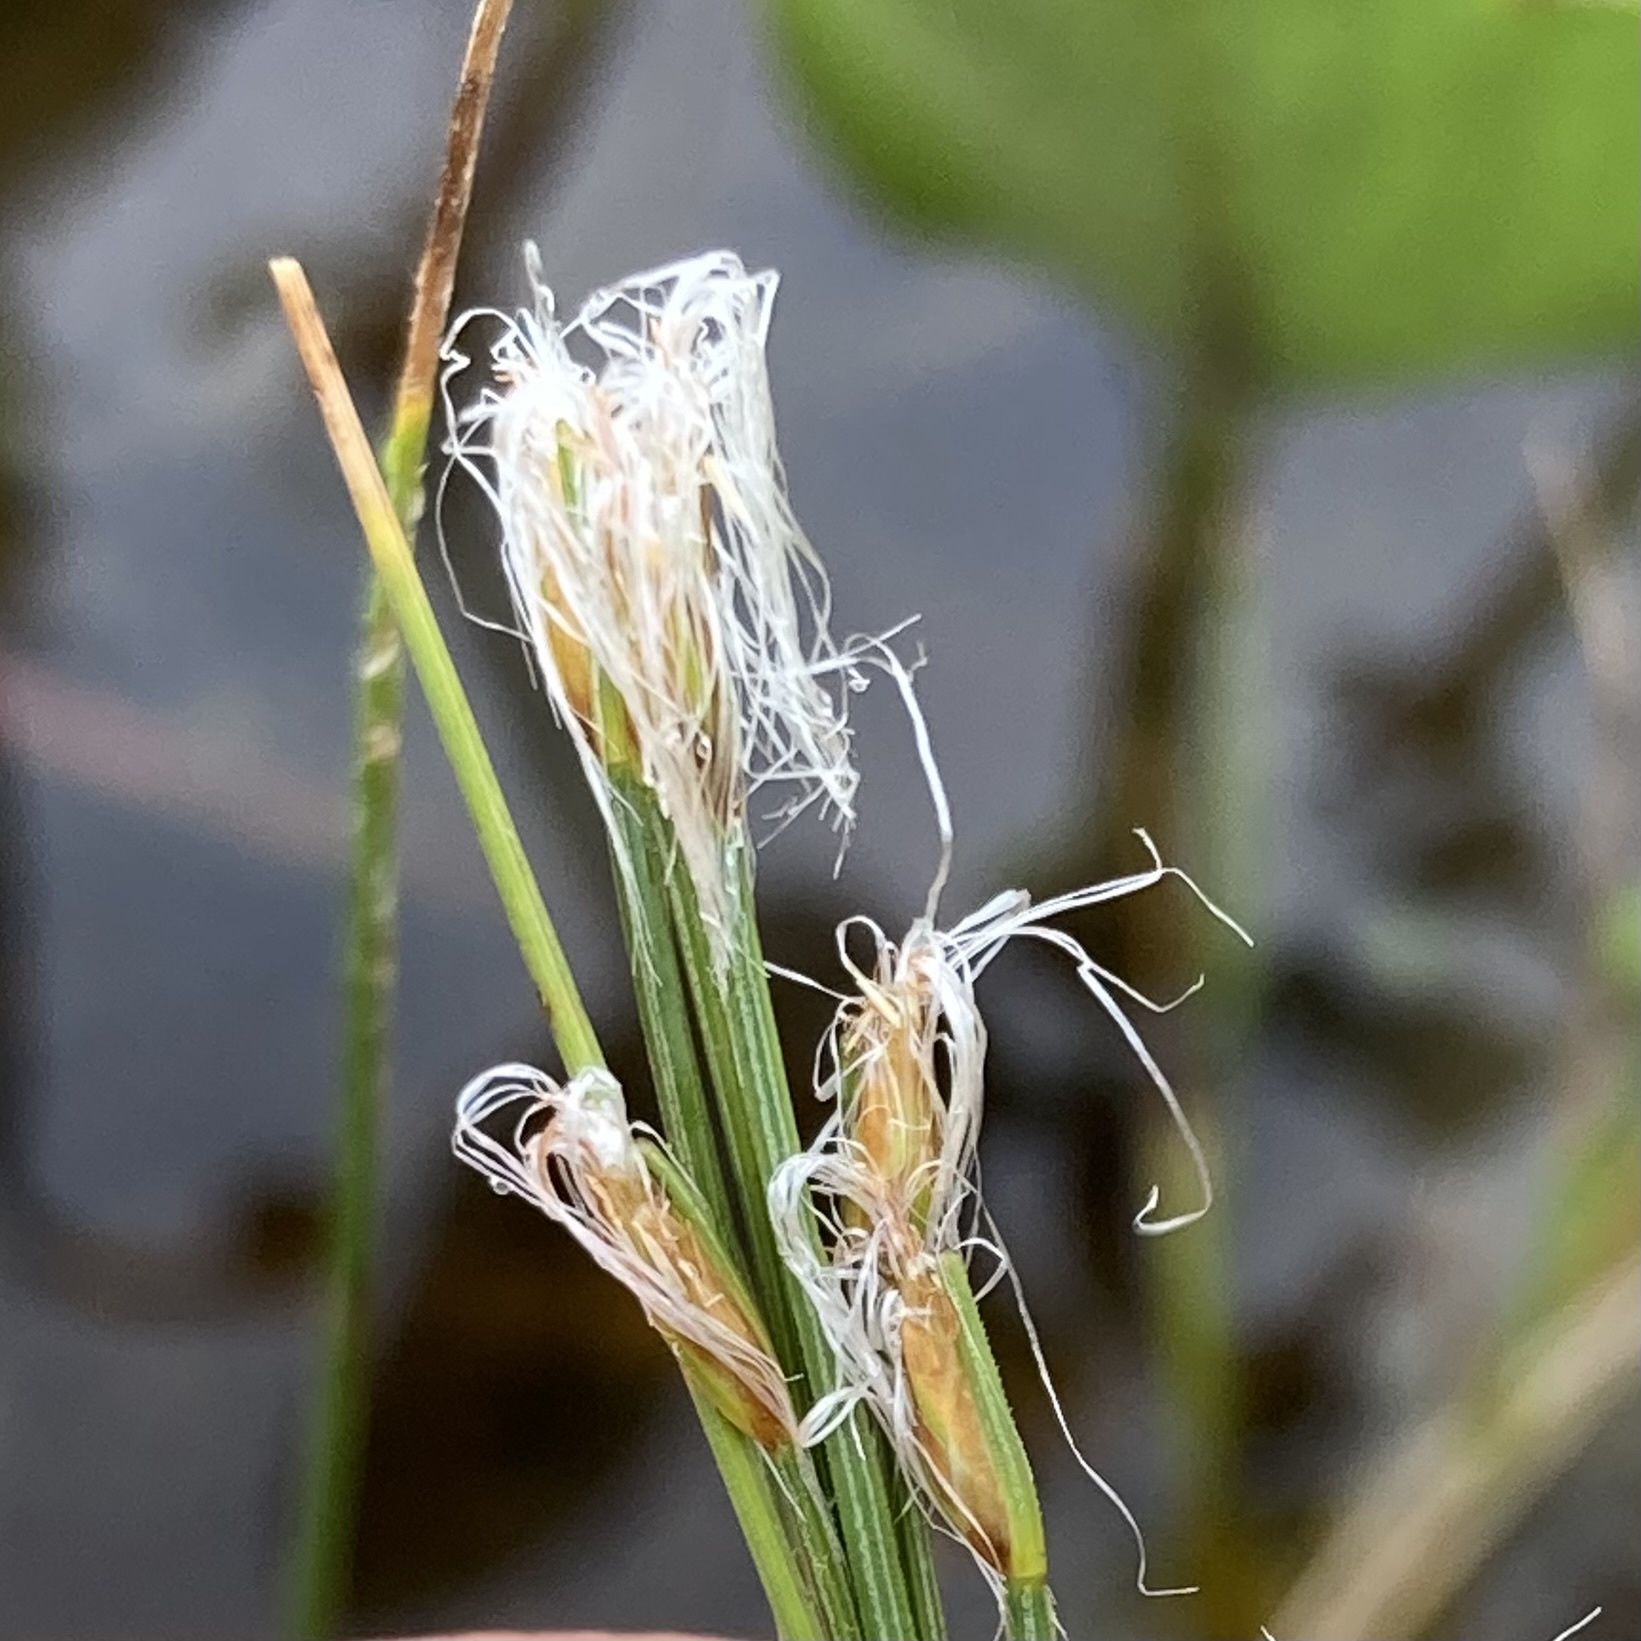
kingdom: Plantae
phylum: Tracheophyta
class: Liliopsida
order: Poales
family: Cyperaceae
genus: Trichophorum
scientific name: Trichophorum alpinum
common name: Alpine bulrush
